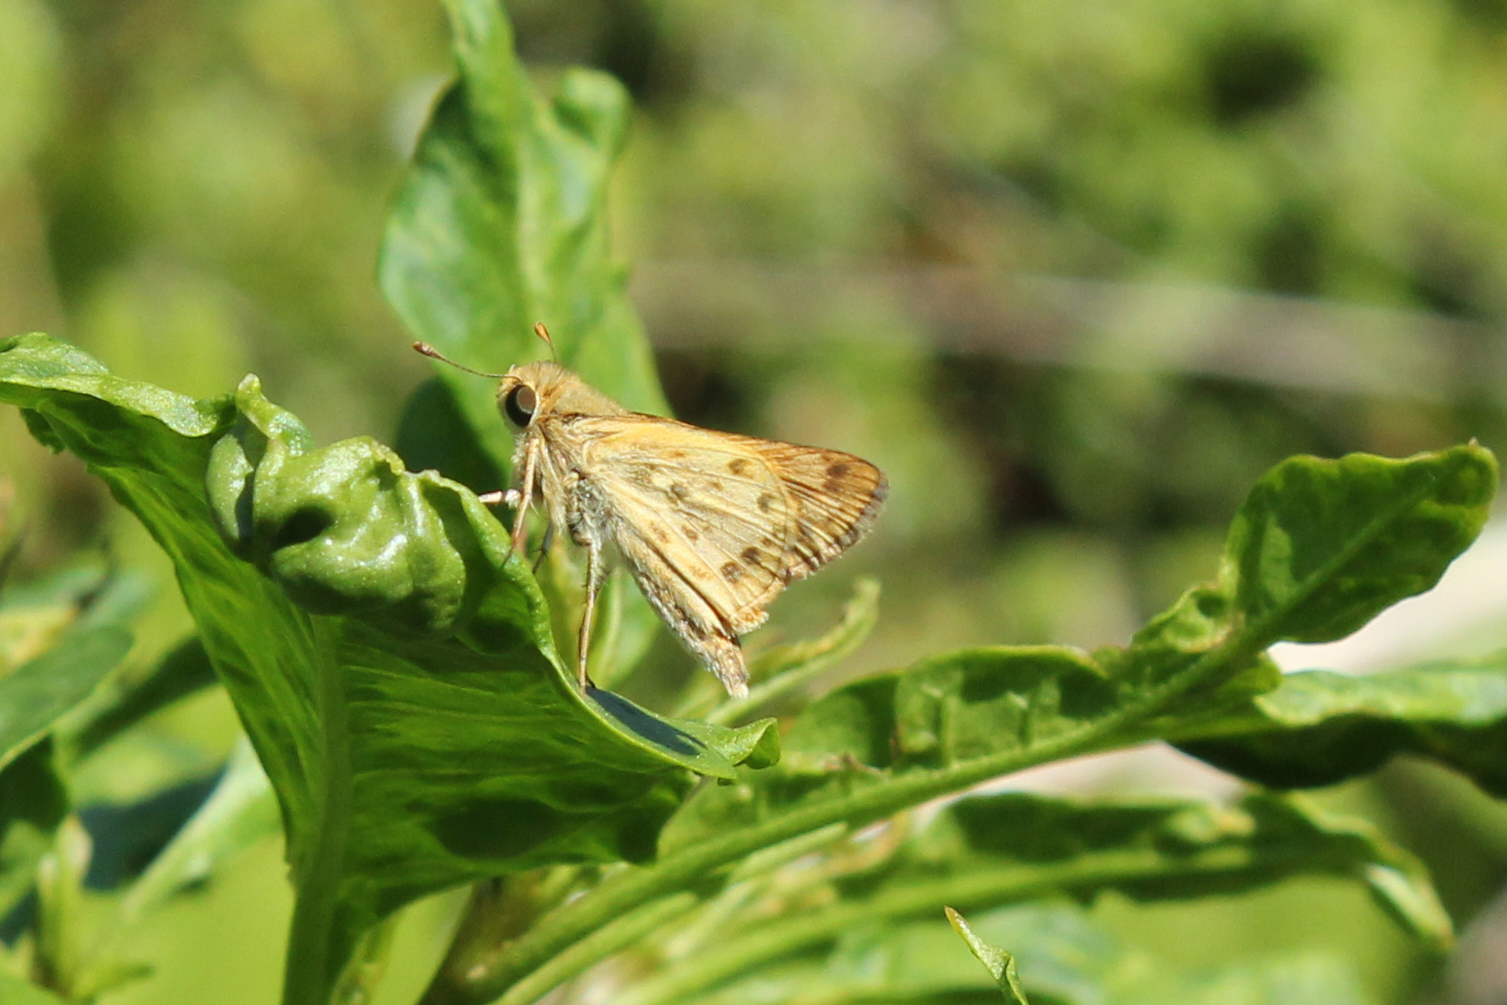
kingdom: Animalia
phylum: Arthropoda
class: Insecta
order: Lepidoptera
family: Hesperiidae
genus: Hylephila
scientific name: Hylephila phyleus
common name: Fiery skipper
